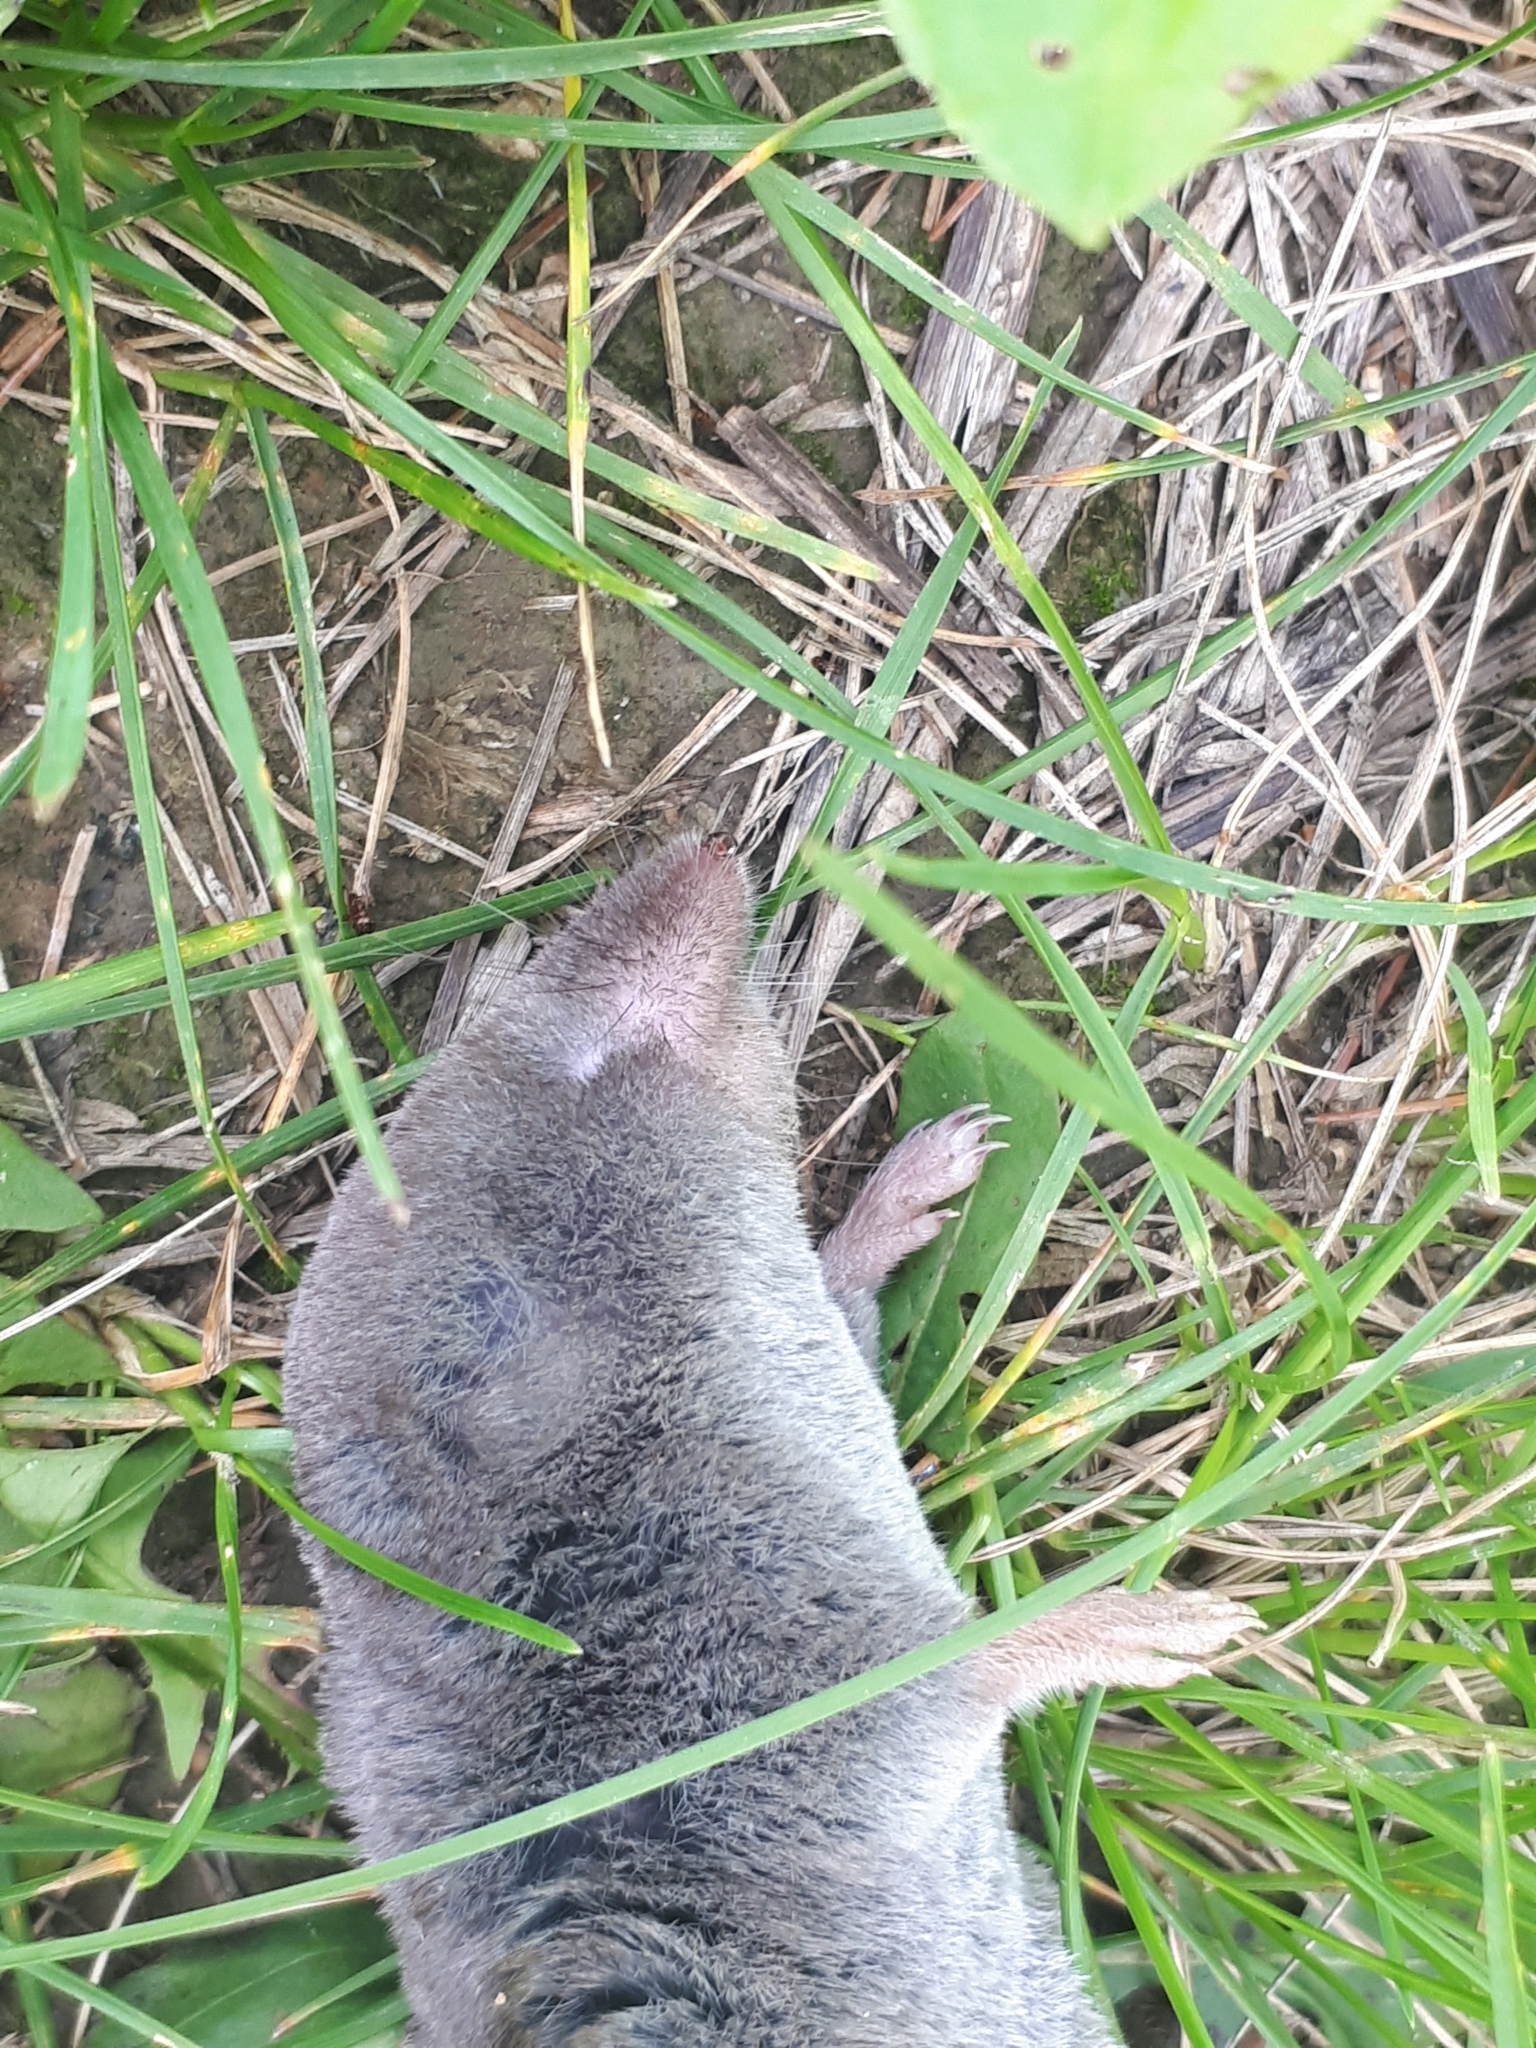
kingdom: Animalia
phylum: Chordata
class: Mammalia
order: Soricomorpha
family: Soricidae
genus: Blarina
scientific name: Blarina brevicauda
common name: Northern short-tailed shrew
